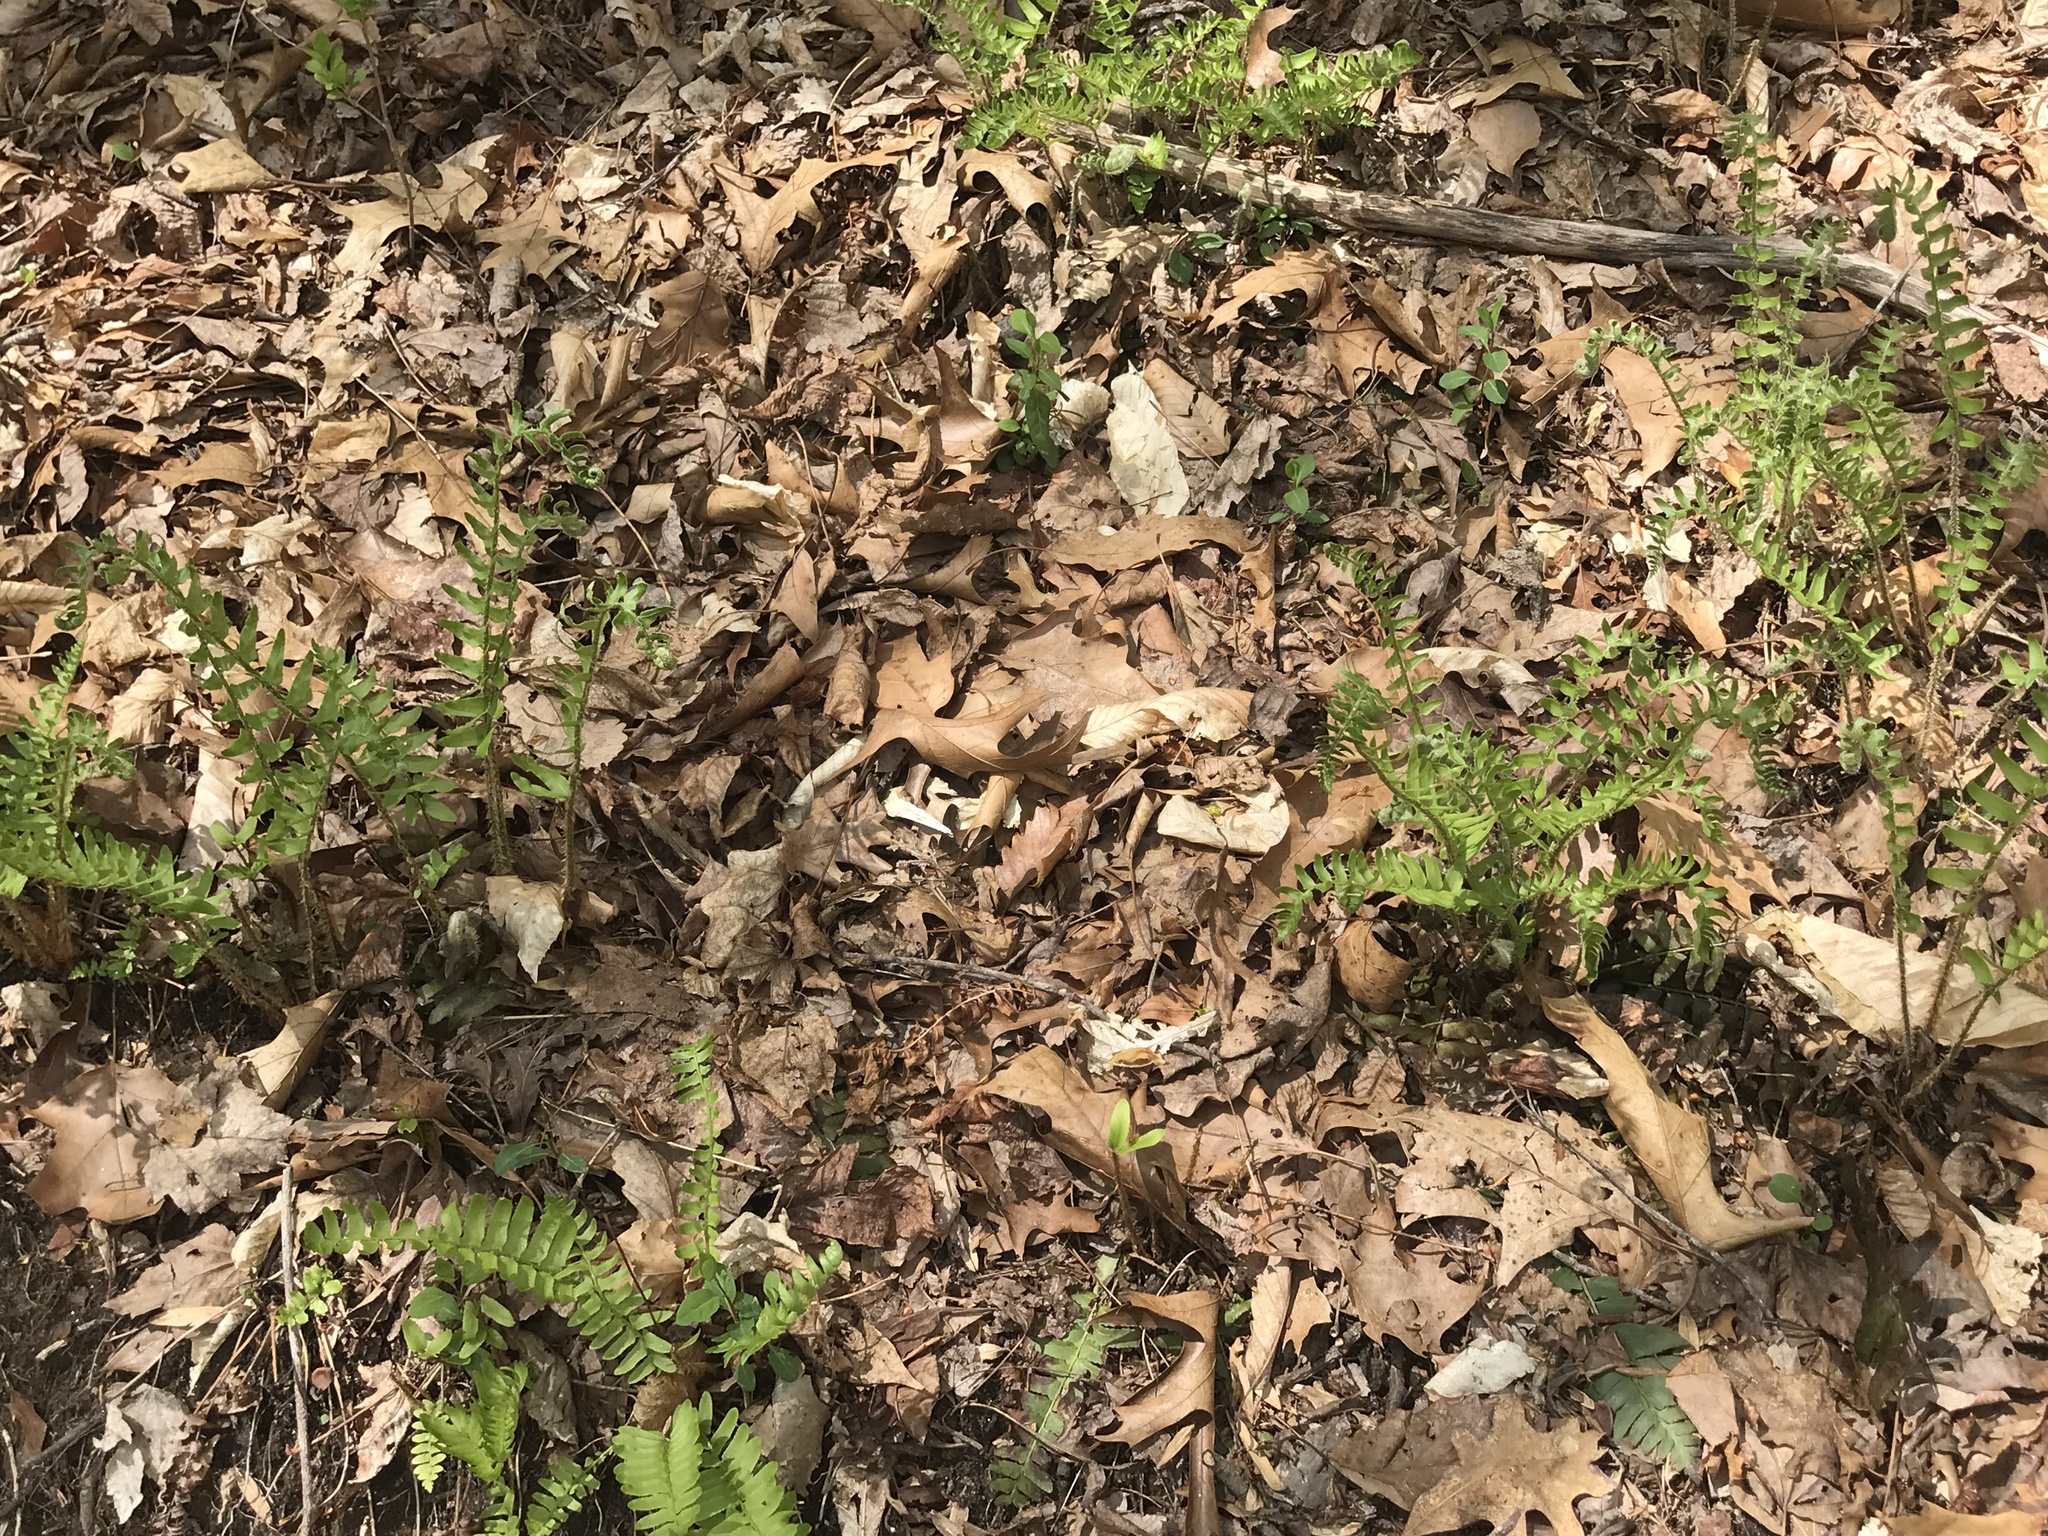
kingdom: Plantae
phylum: Tracheophyta
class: Polypodiopsida
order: Polypodiales
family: Dryopteridaceae
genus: Polystichum
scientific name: Polystichum acrostichoides
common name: Christmas fern
